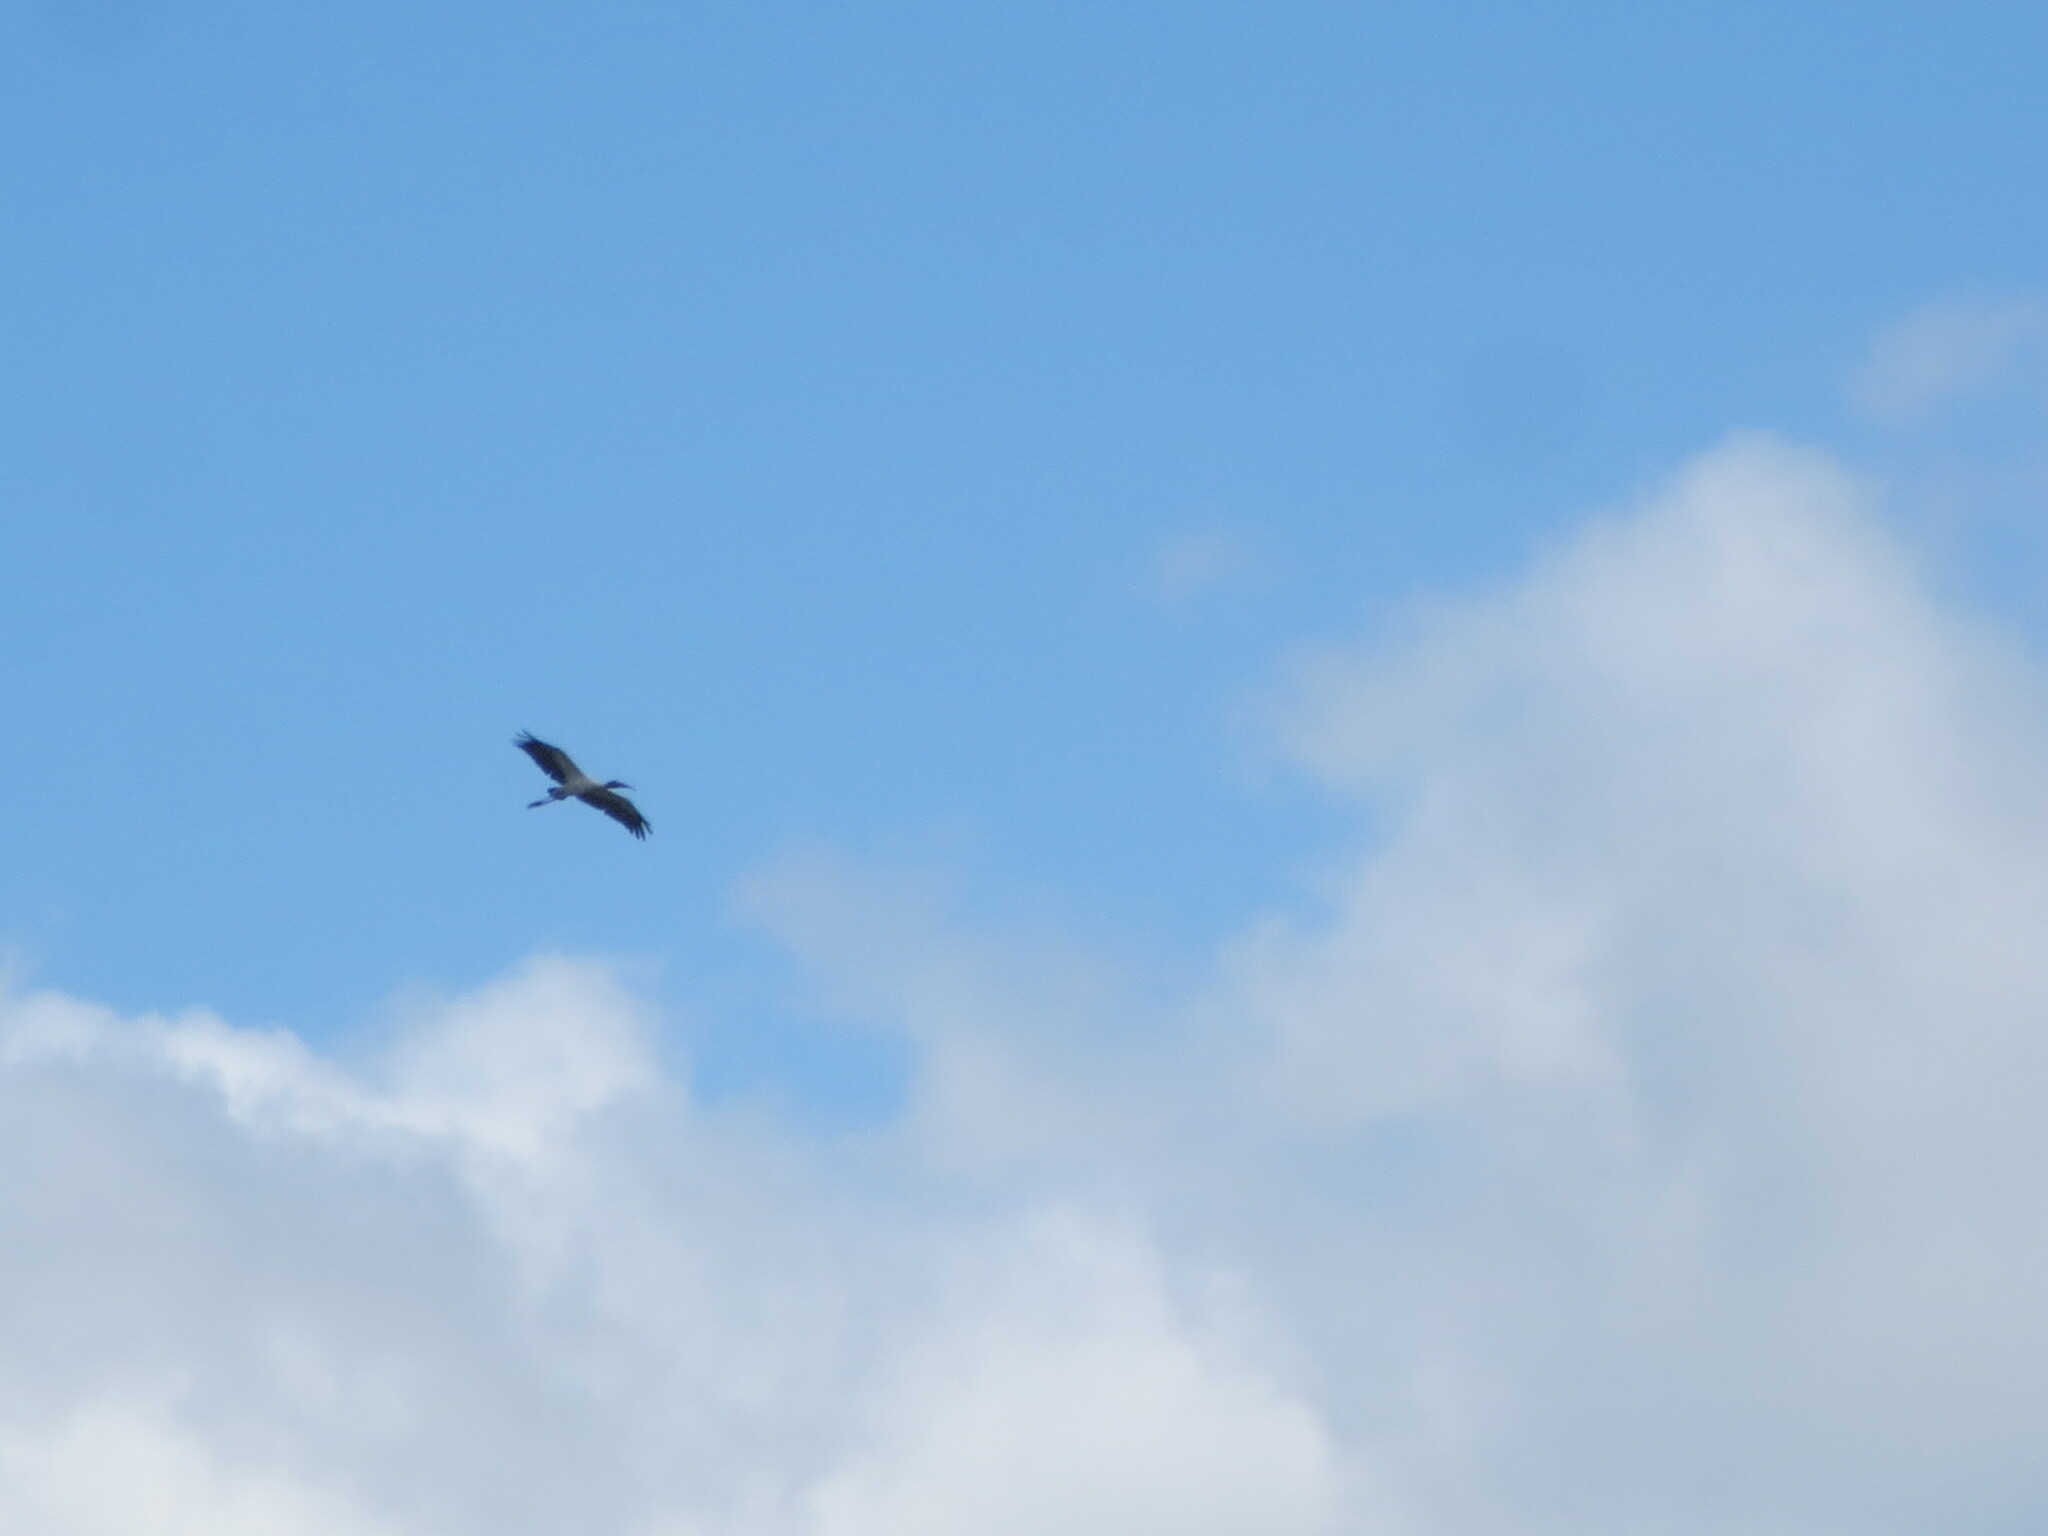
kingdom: Animalia
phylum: Chordata
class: Aves
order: Ciconiiformes
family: Ciconiidae
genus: Mycteria
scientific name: Mycteria americana
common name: Wood stork
